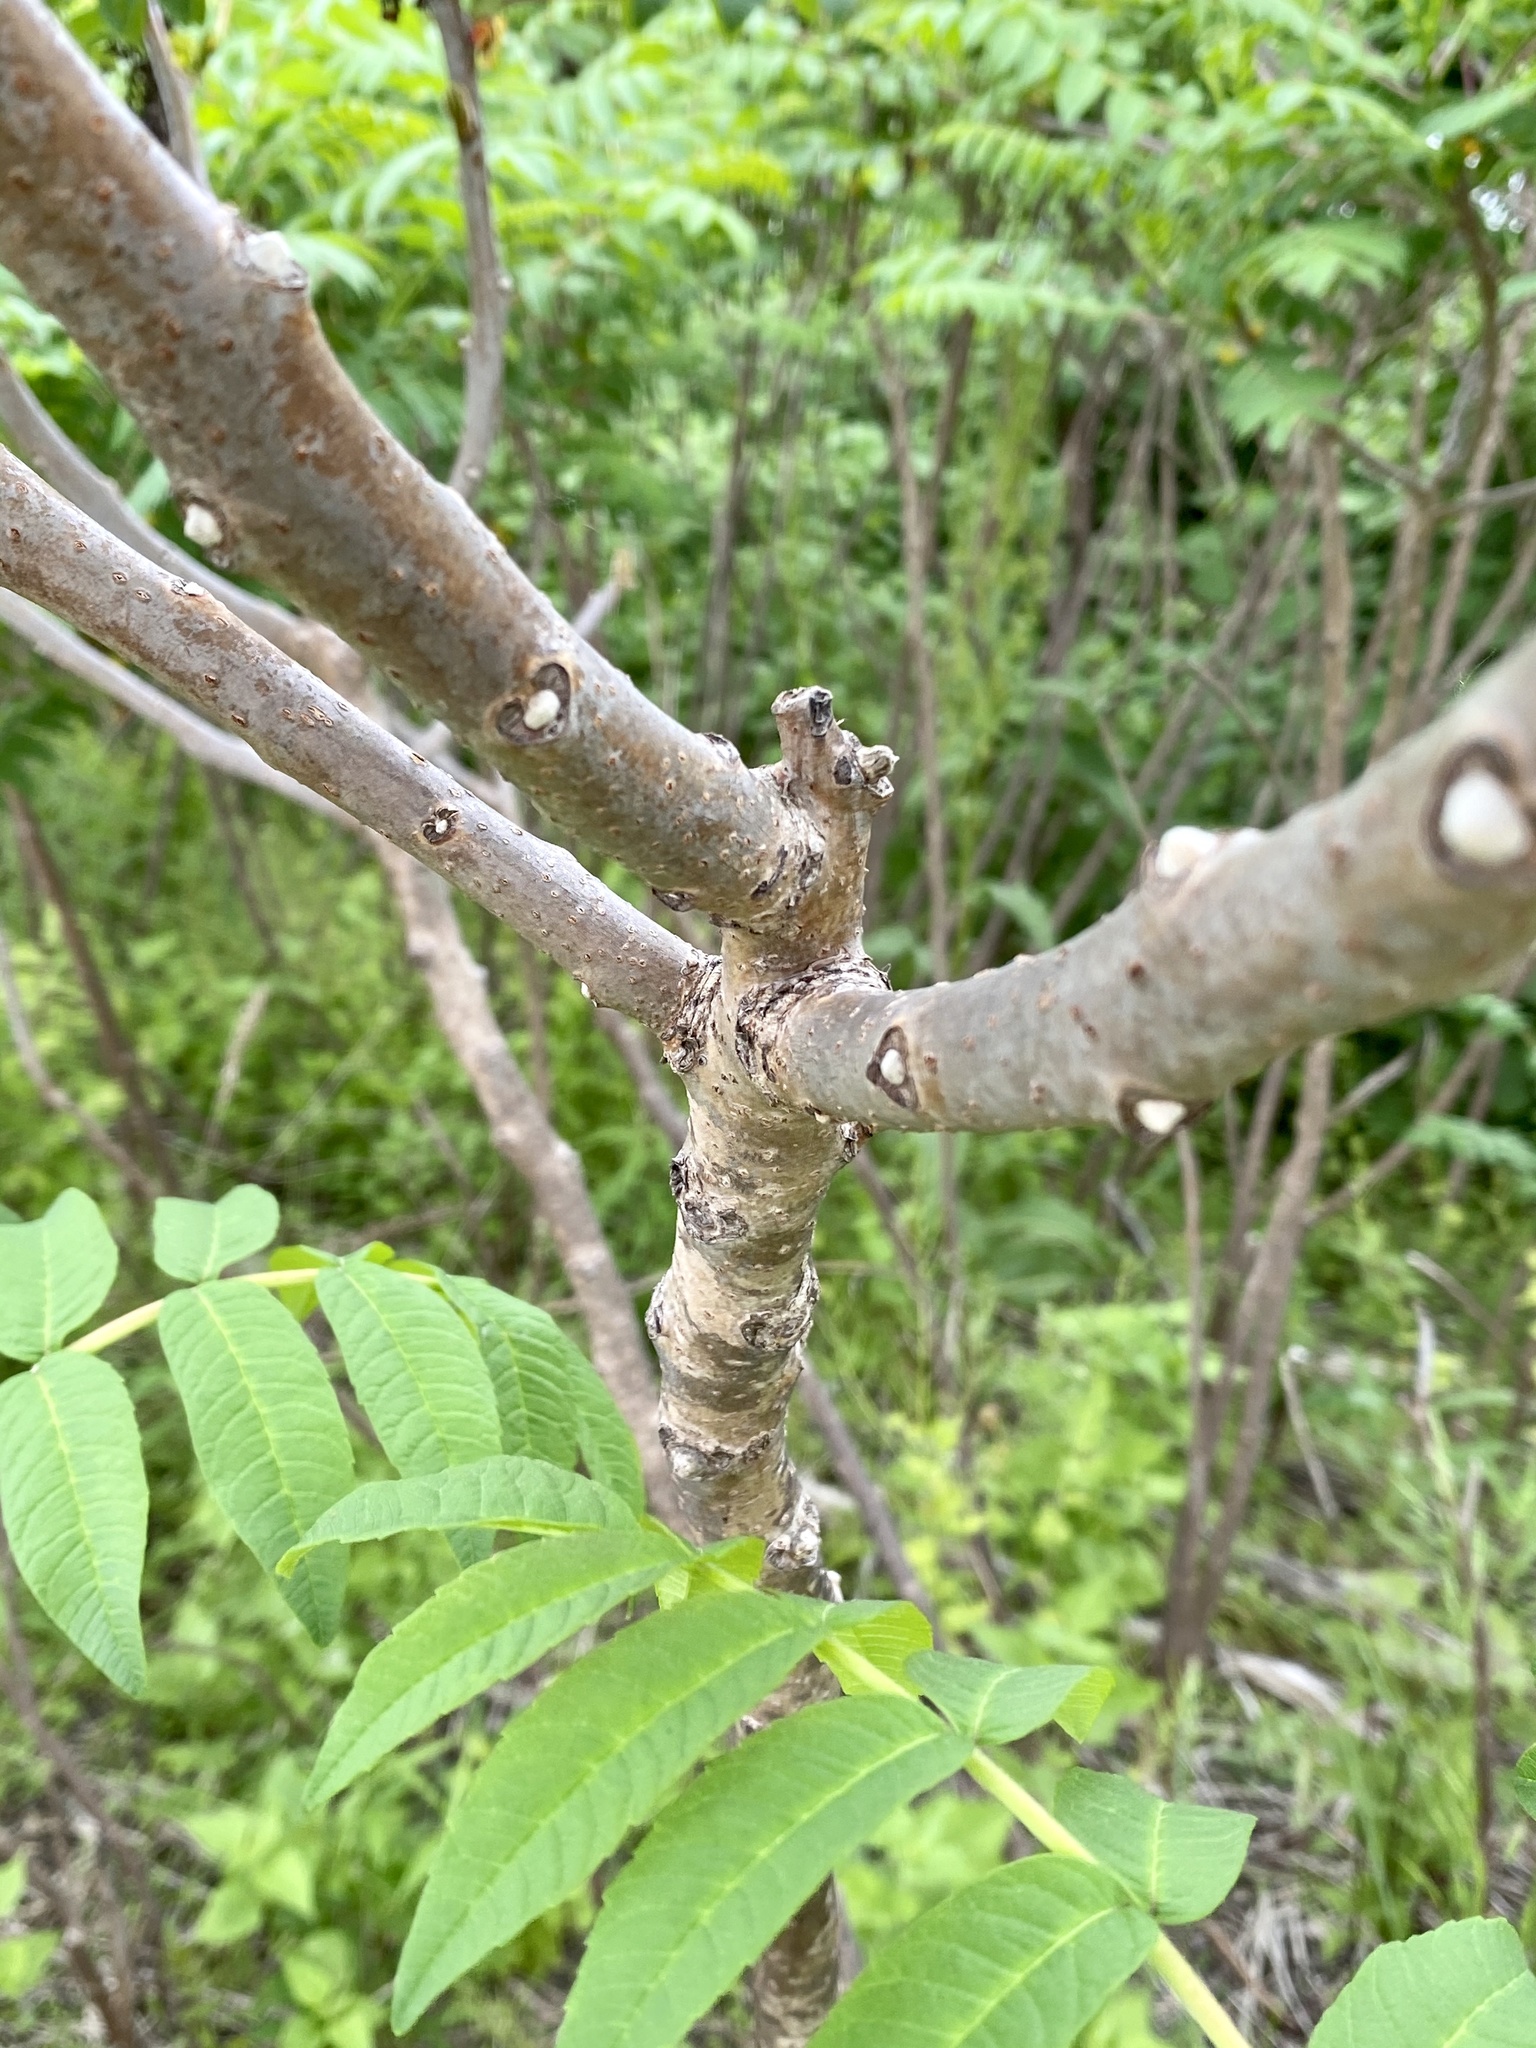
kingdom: Plantae
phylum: Tracheophyta
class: Magnoliopsida
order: Sapindales
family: Anacardiaceae
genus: Rhus
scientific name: Rhus glabra
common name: Scarlet sumac
